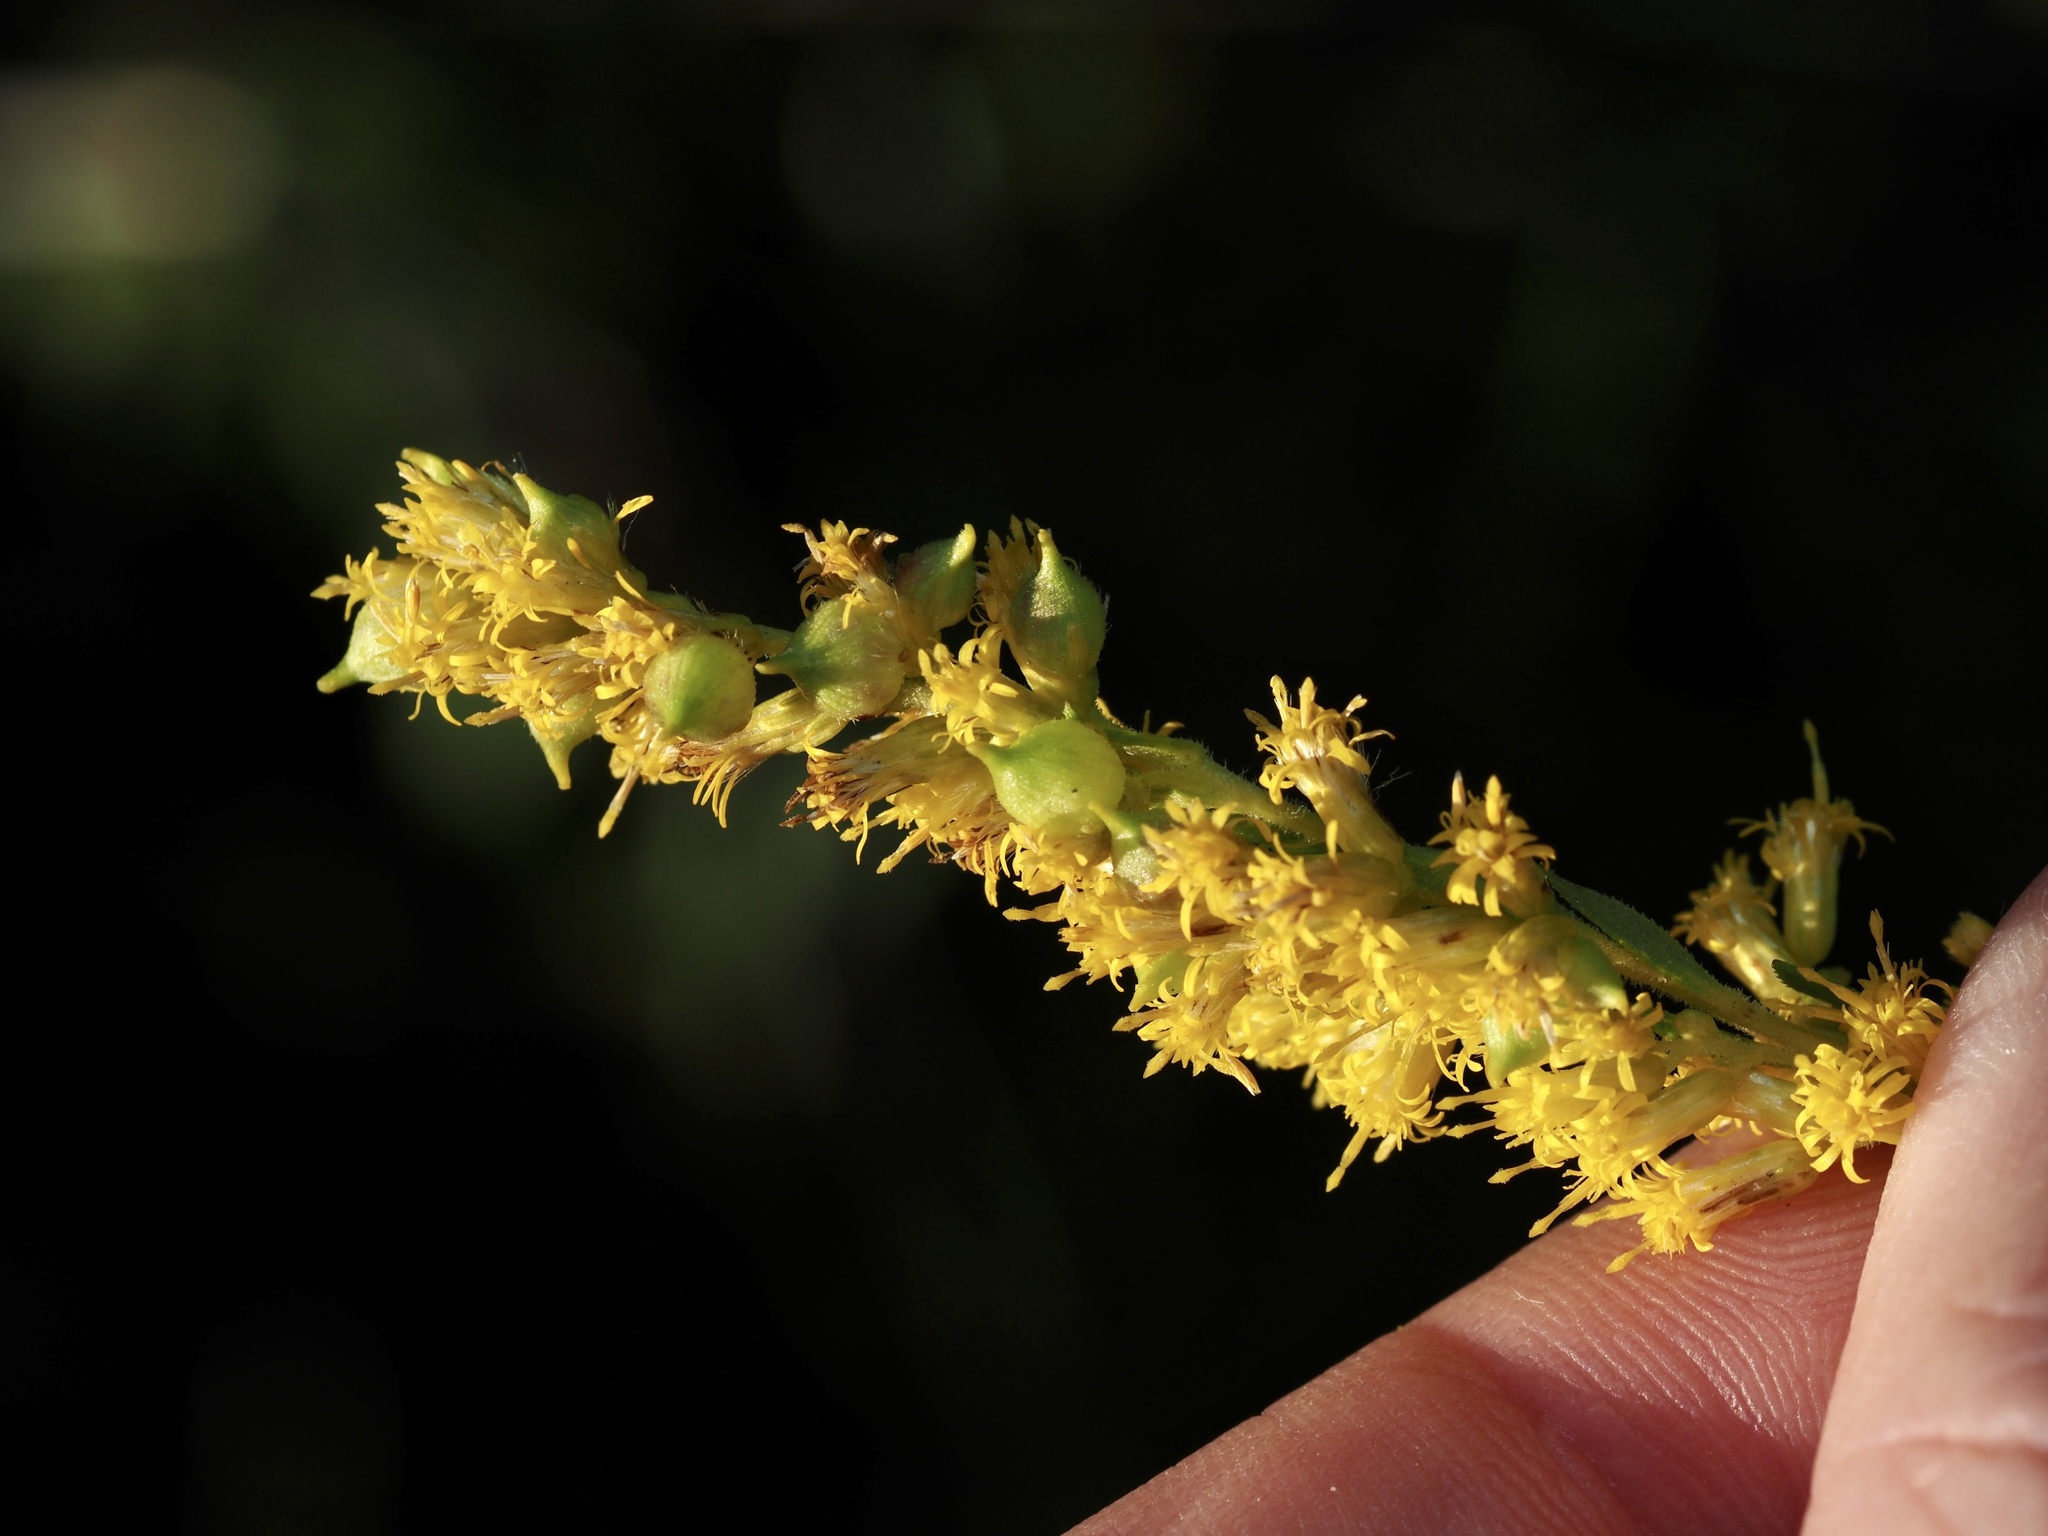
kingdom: Animalia
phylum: Arthropoda
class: Insecta
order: Diptera
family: Cecidomyiidae
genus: Schizomyia
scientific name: Schizomyia racemicola
